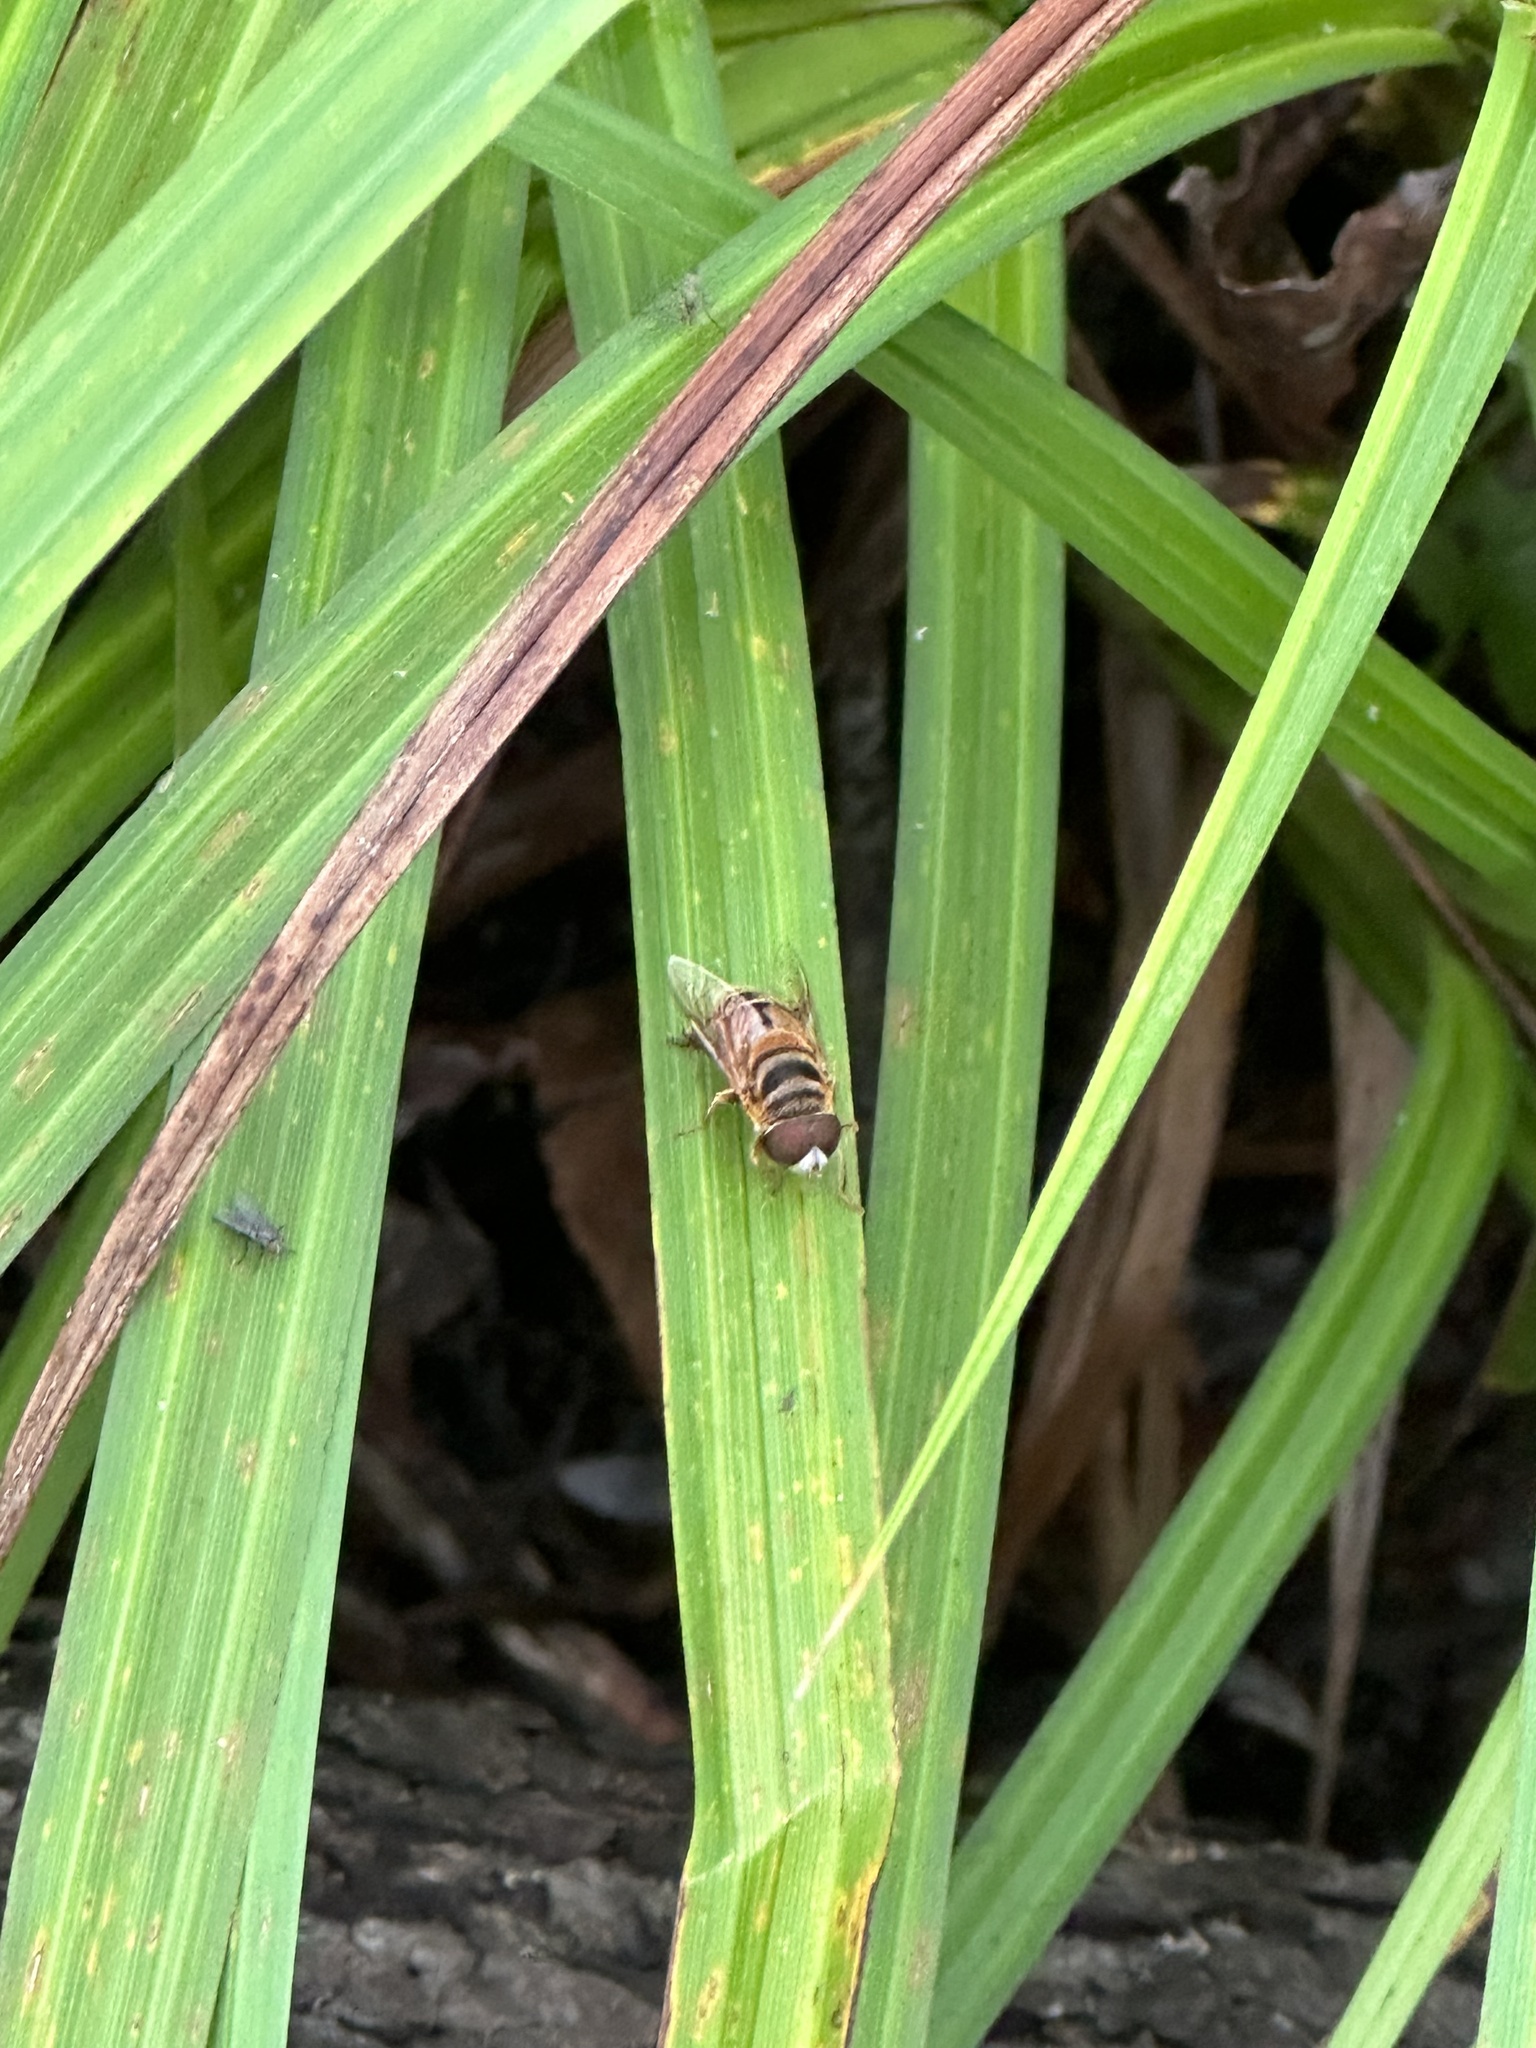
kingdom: Animalia
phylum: Arthropoda
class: Insecta
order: Diptera
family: Syrphidae
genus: Palpada
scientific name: Palpada vinetorum
